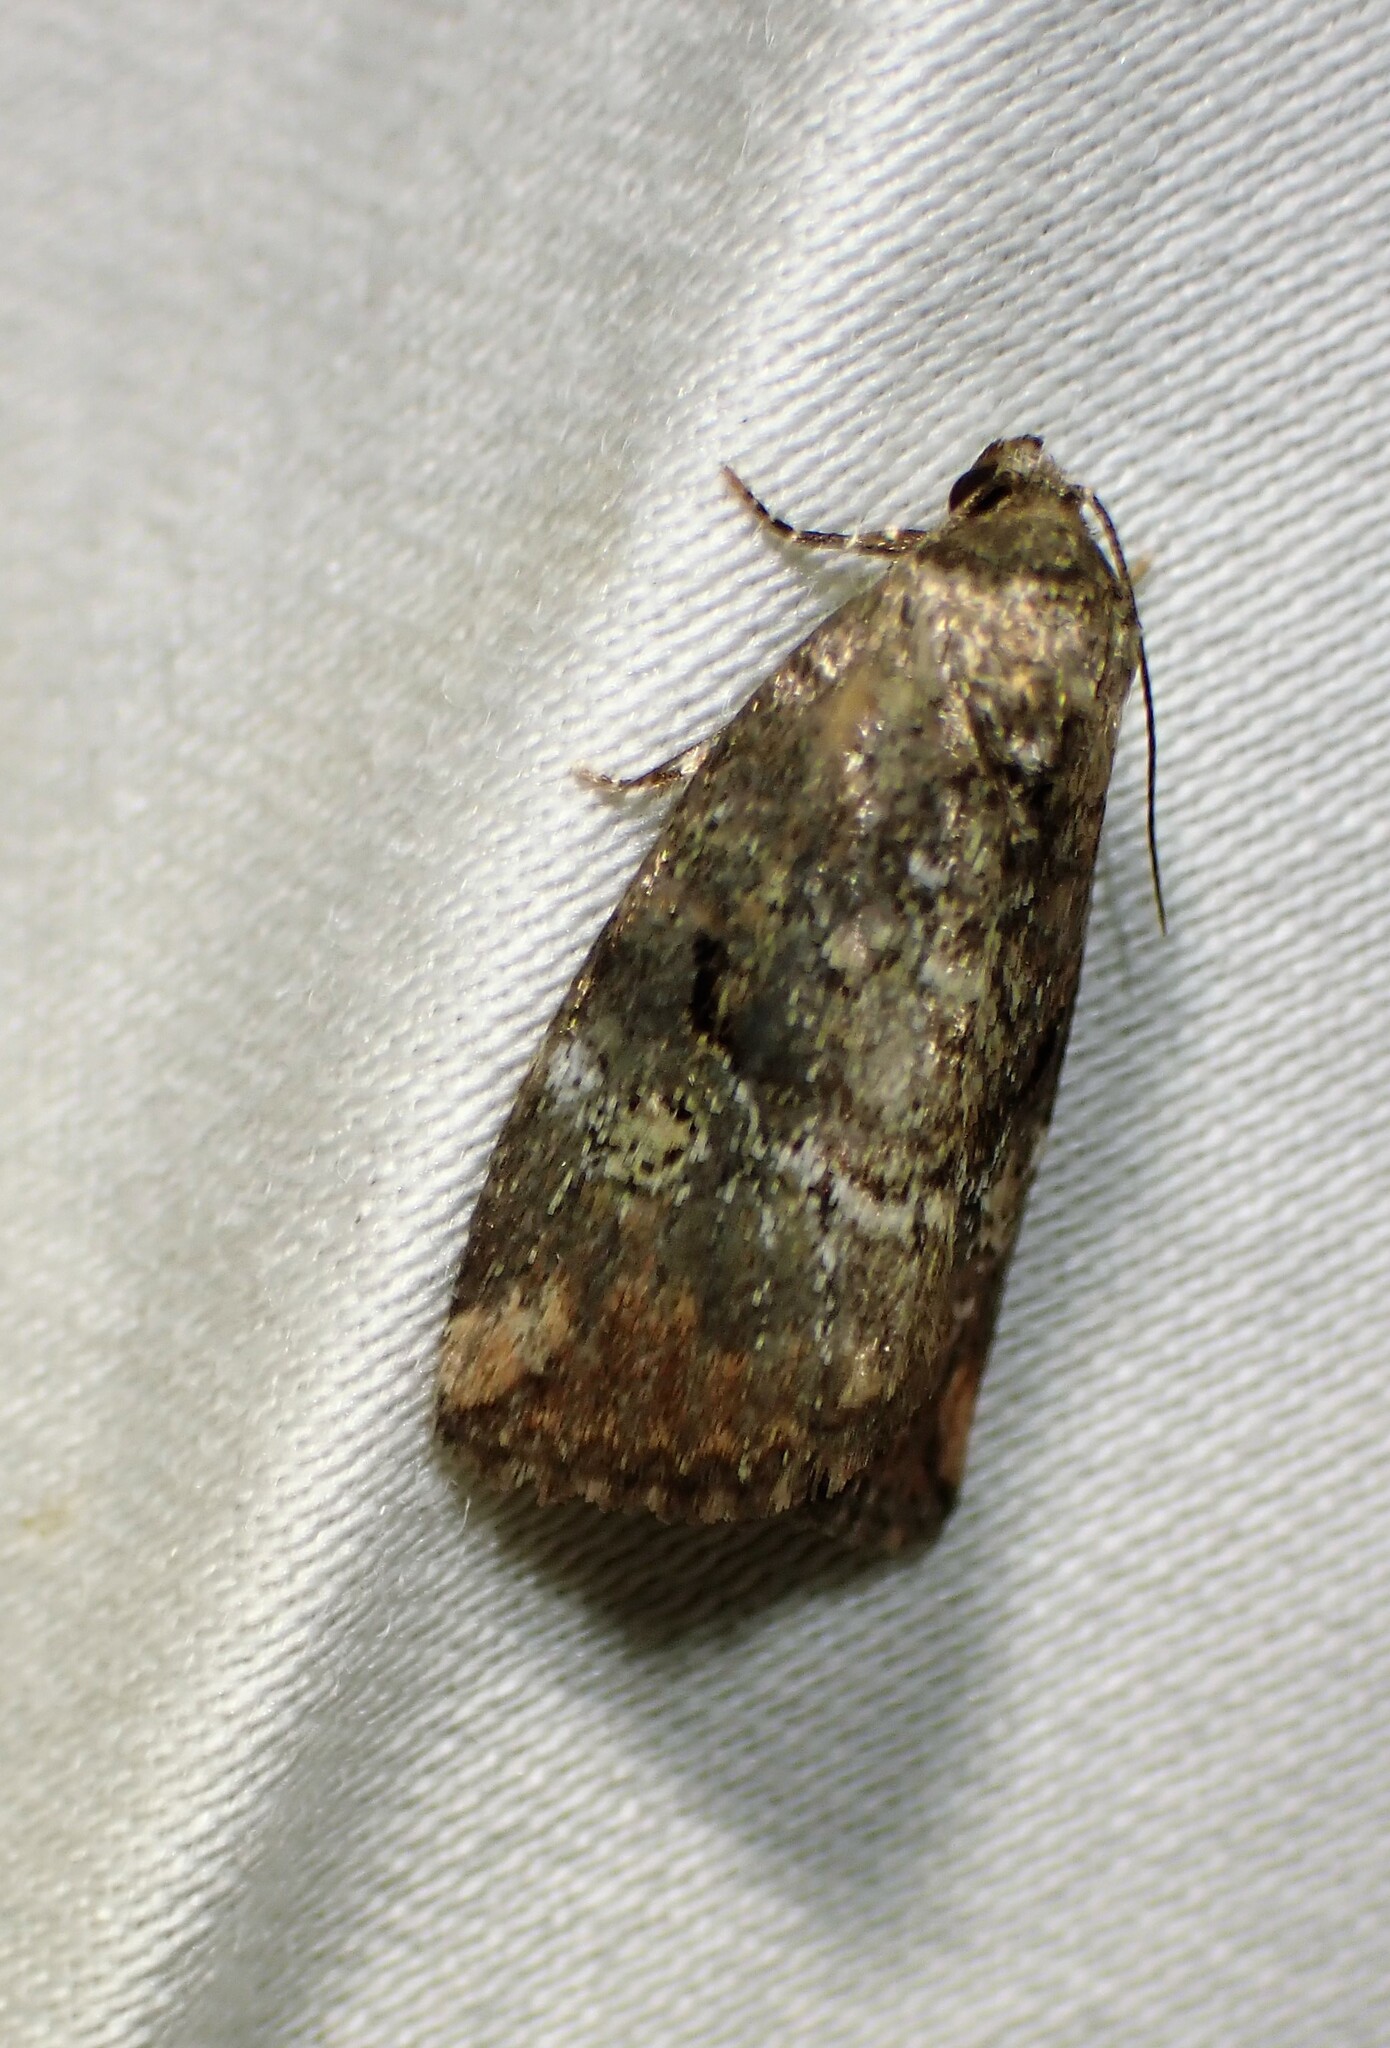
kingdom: Animalia
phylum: Arthropoda
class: Insecta
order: Lepidoptera
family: Noctuidae
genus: Elaphria
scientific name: Elaphria versicolor
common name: Fir harlequin
